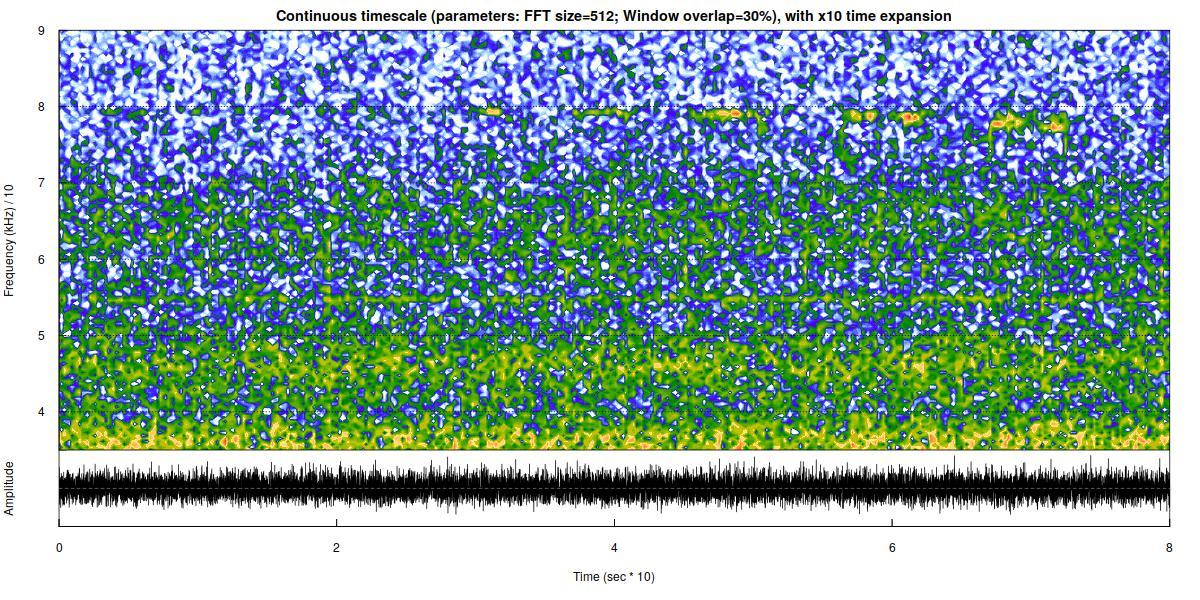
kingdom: Animalia
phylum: Chordata
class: Mammalia
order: Chiroptera
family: Rhinolophidae
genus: Rhinolophus
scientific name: Rhinolophus ferrumequinum
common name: Greater horseshoe bat
